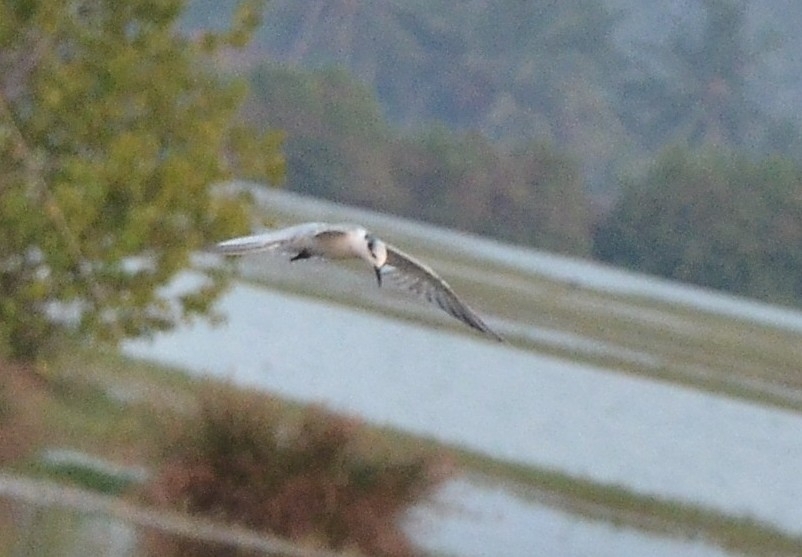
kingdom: Animalia
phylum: Chordata
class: Aves
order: Charadriiformes
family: Laridae
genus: Chlidonias
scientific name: Chlidonias hybrida
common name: Whiskered tern
